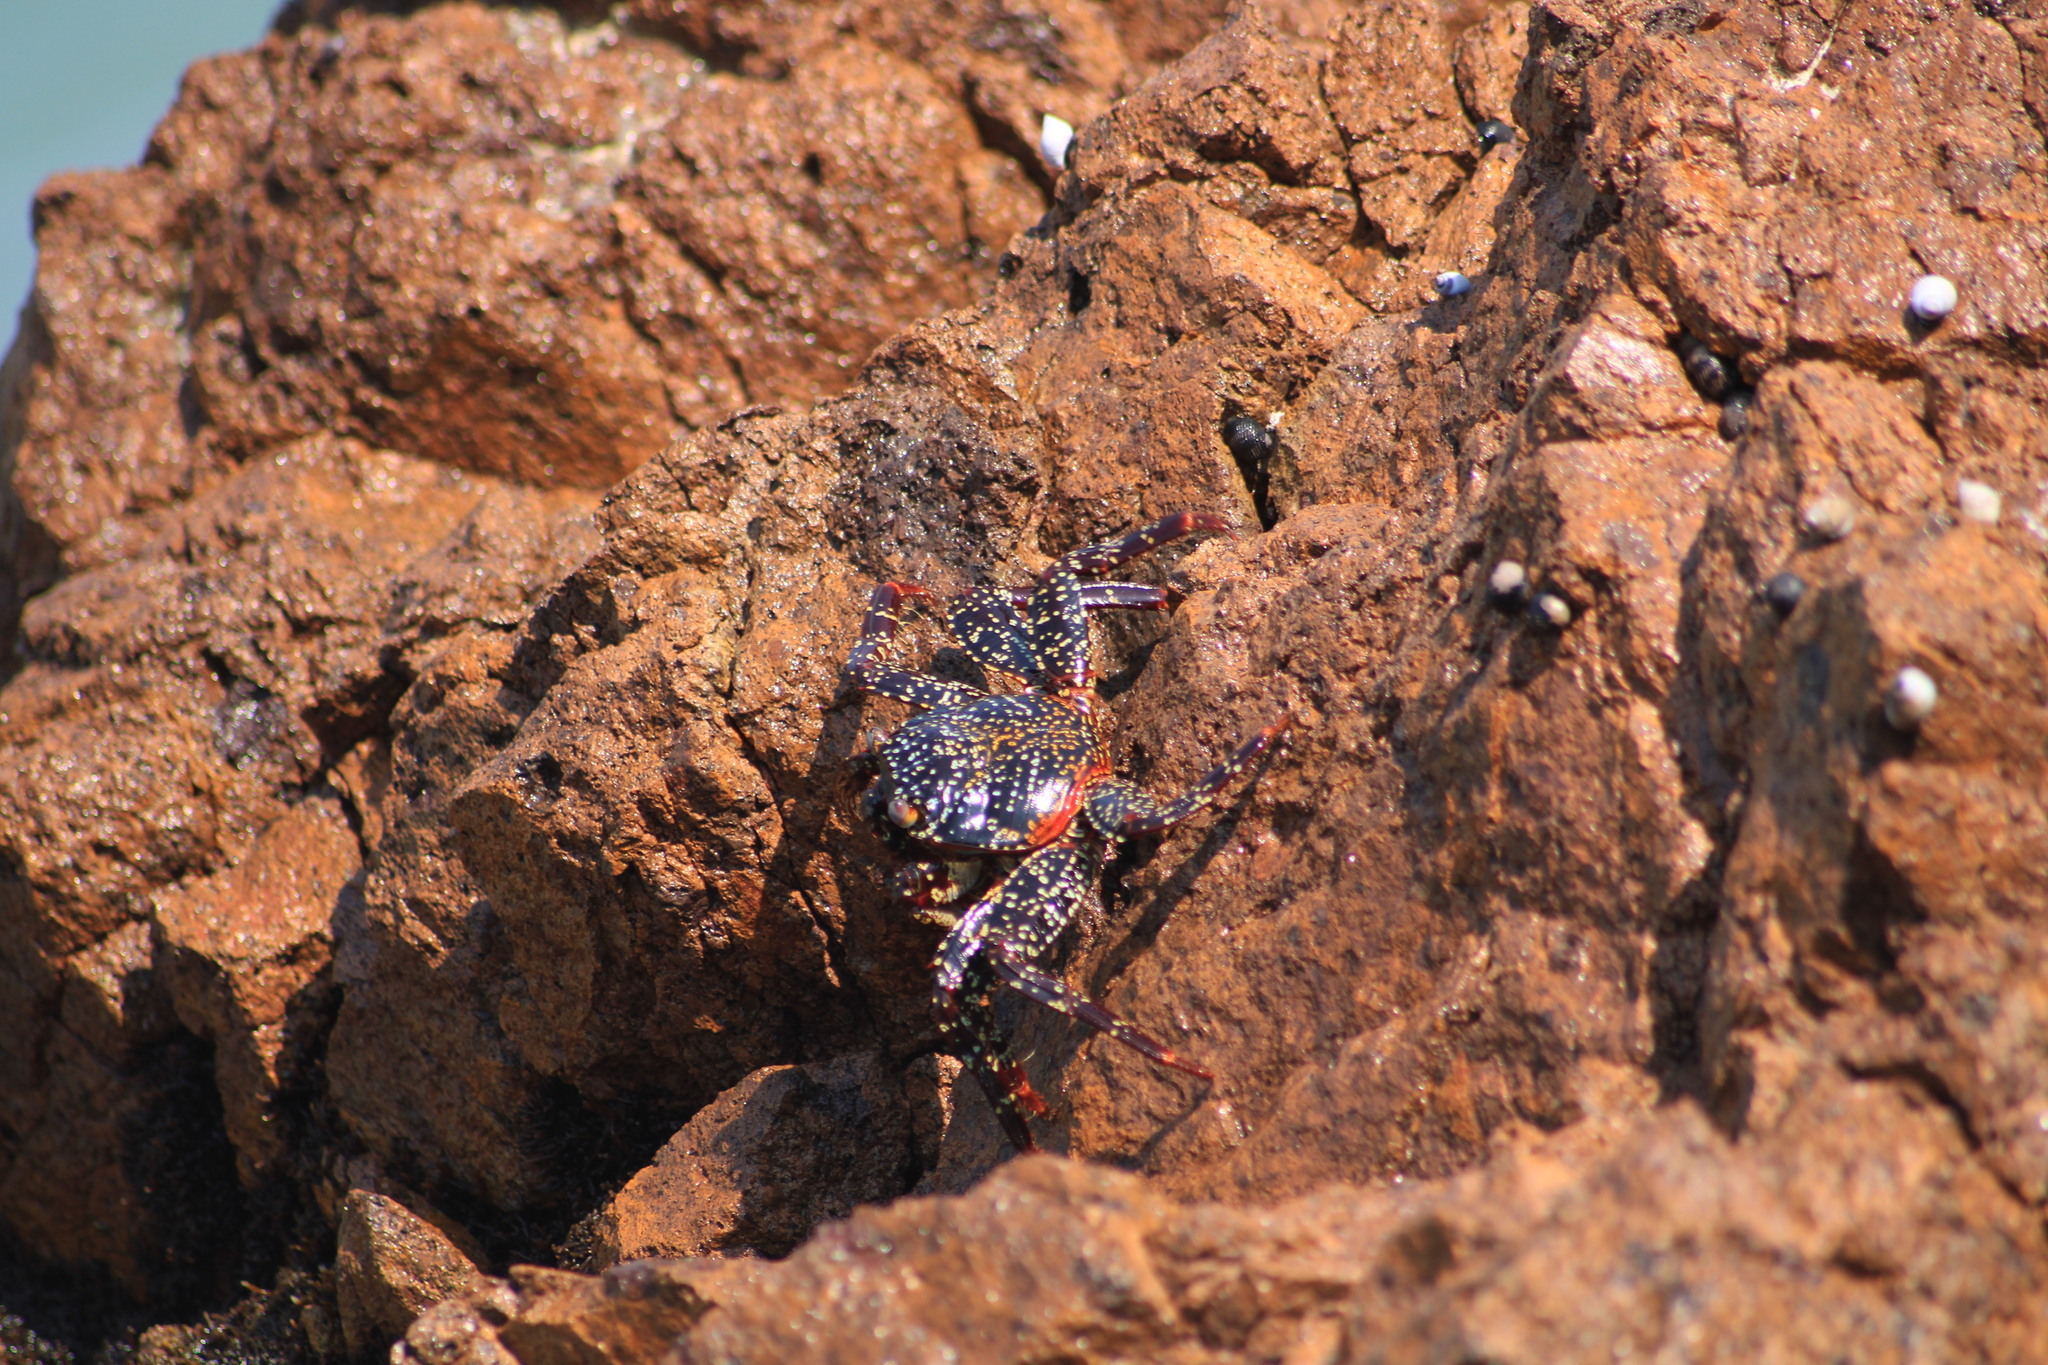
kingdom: Animalia
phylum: Arthropoda
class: Malacostraca
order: Decapoda
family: Grapsidae
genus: Grapsus
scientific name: Grapsus grapsus
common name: Sally lightfoot
